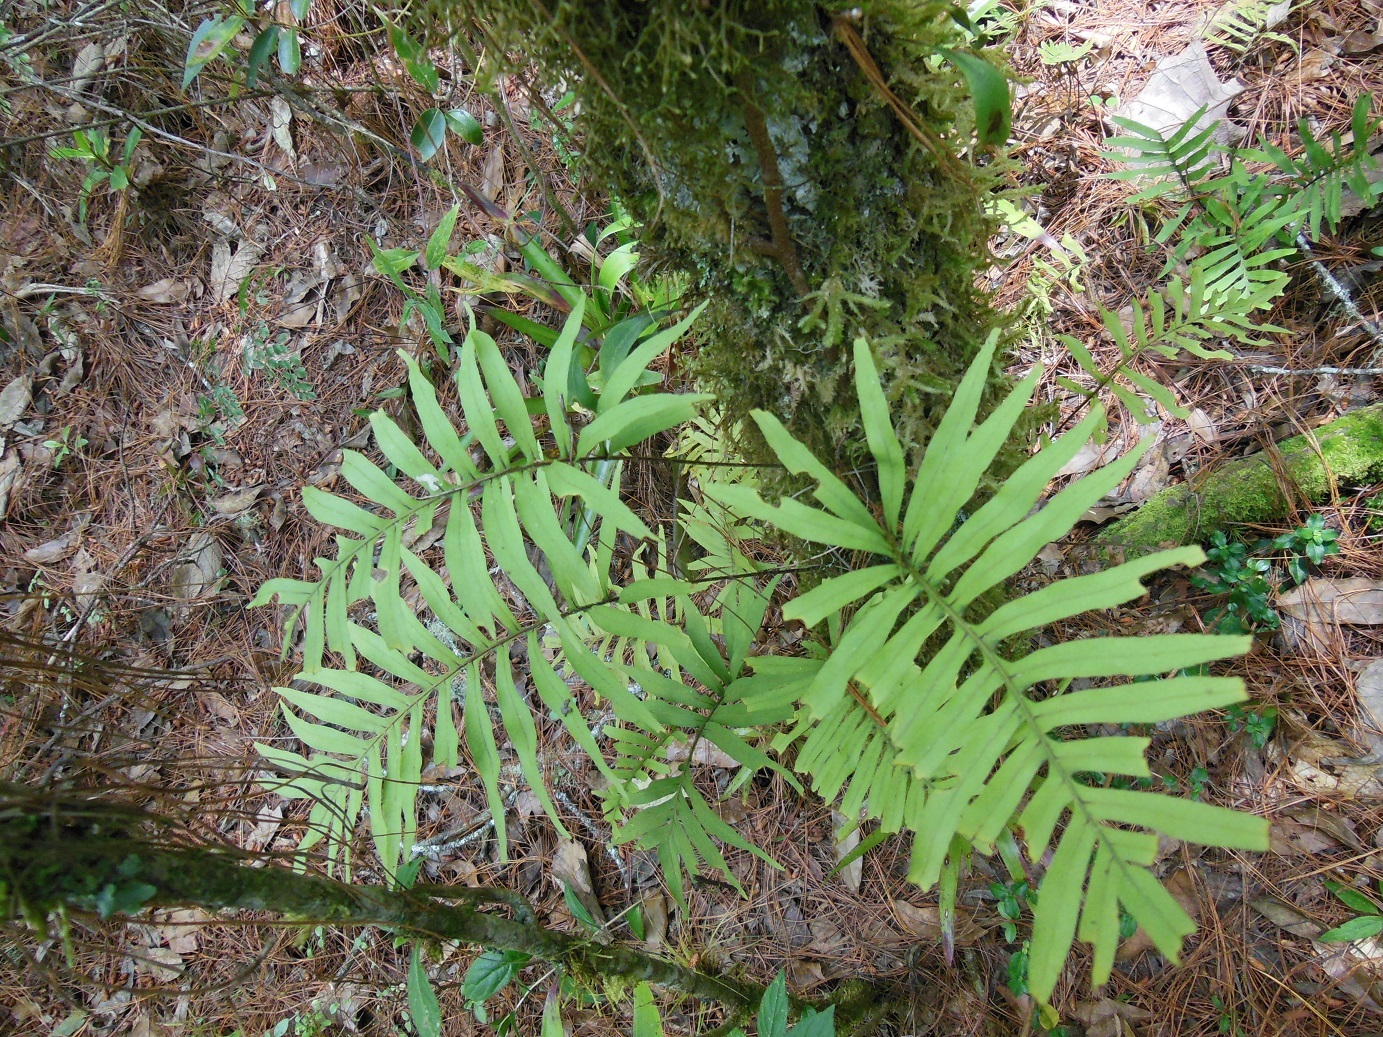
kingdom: Plantae
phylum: Tracheophyta
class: Polypodiopsida
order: Polypodiales
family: Polypodiaceae
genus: Pleopeltis
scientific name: Pleopeltis plebeia
